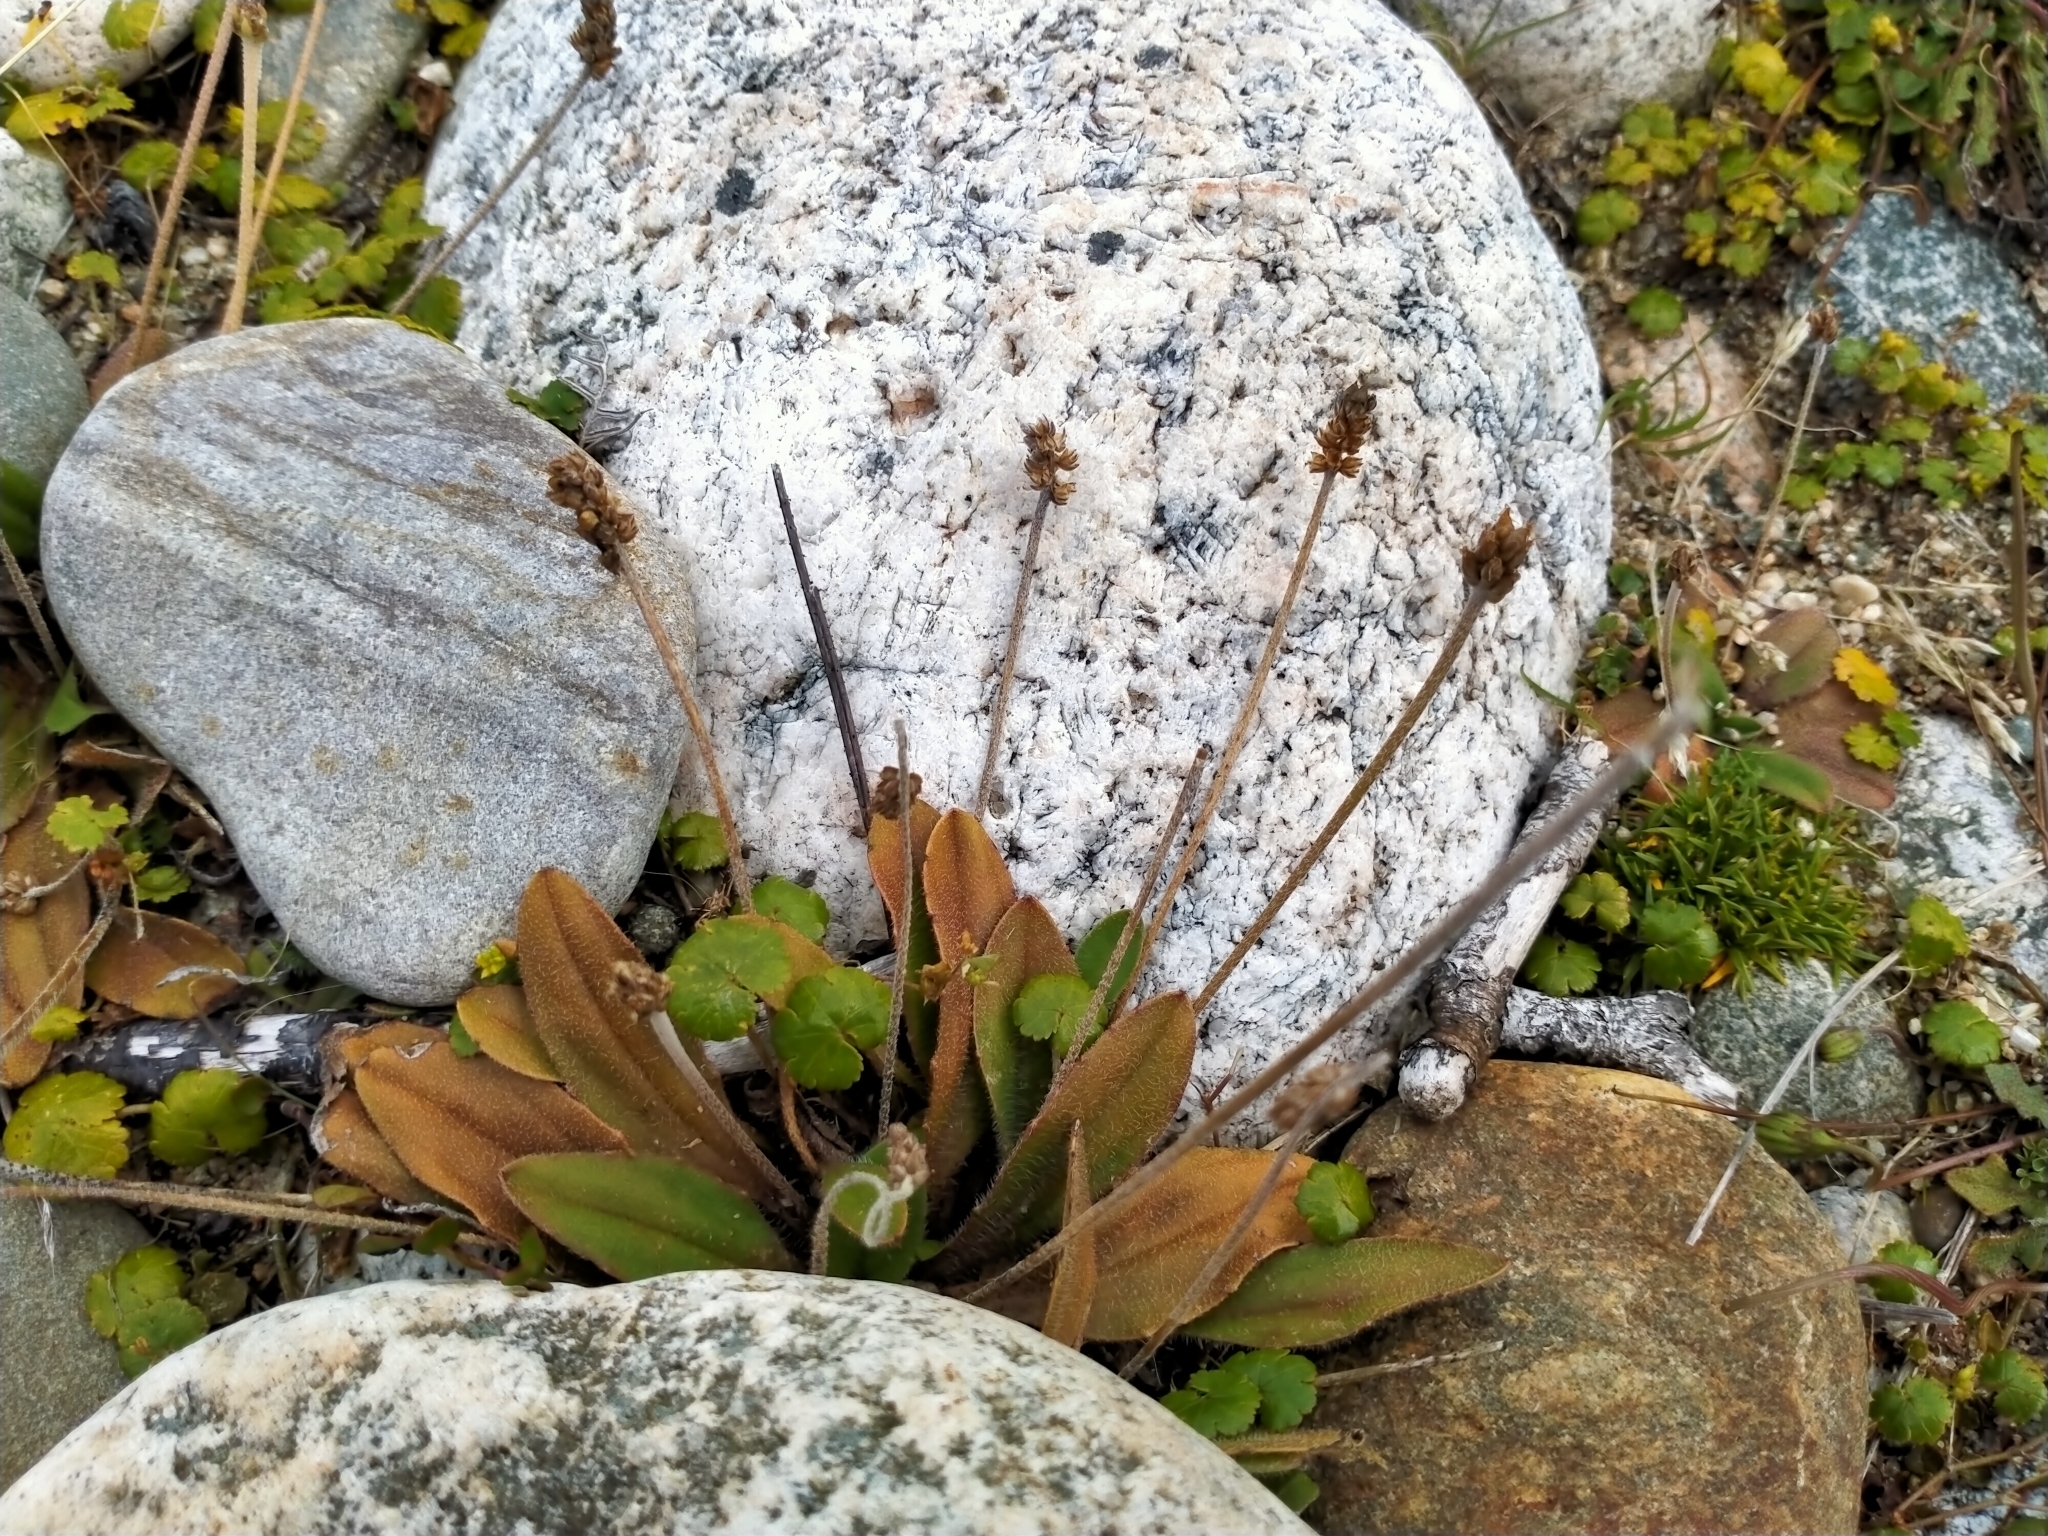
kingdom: Plantae
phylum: Tracheophyta
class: Magnoliopsida
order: Lamiales
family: Plantaginaceae
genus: Plantago
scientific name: Plantago raoulii
